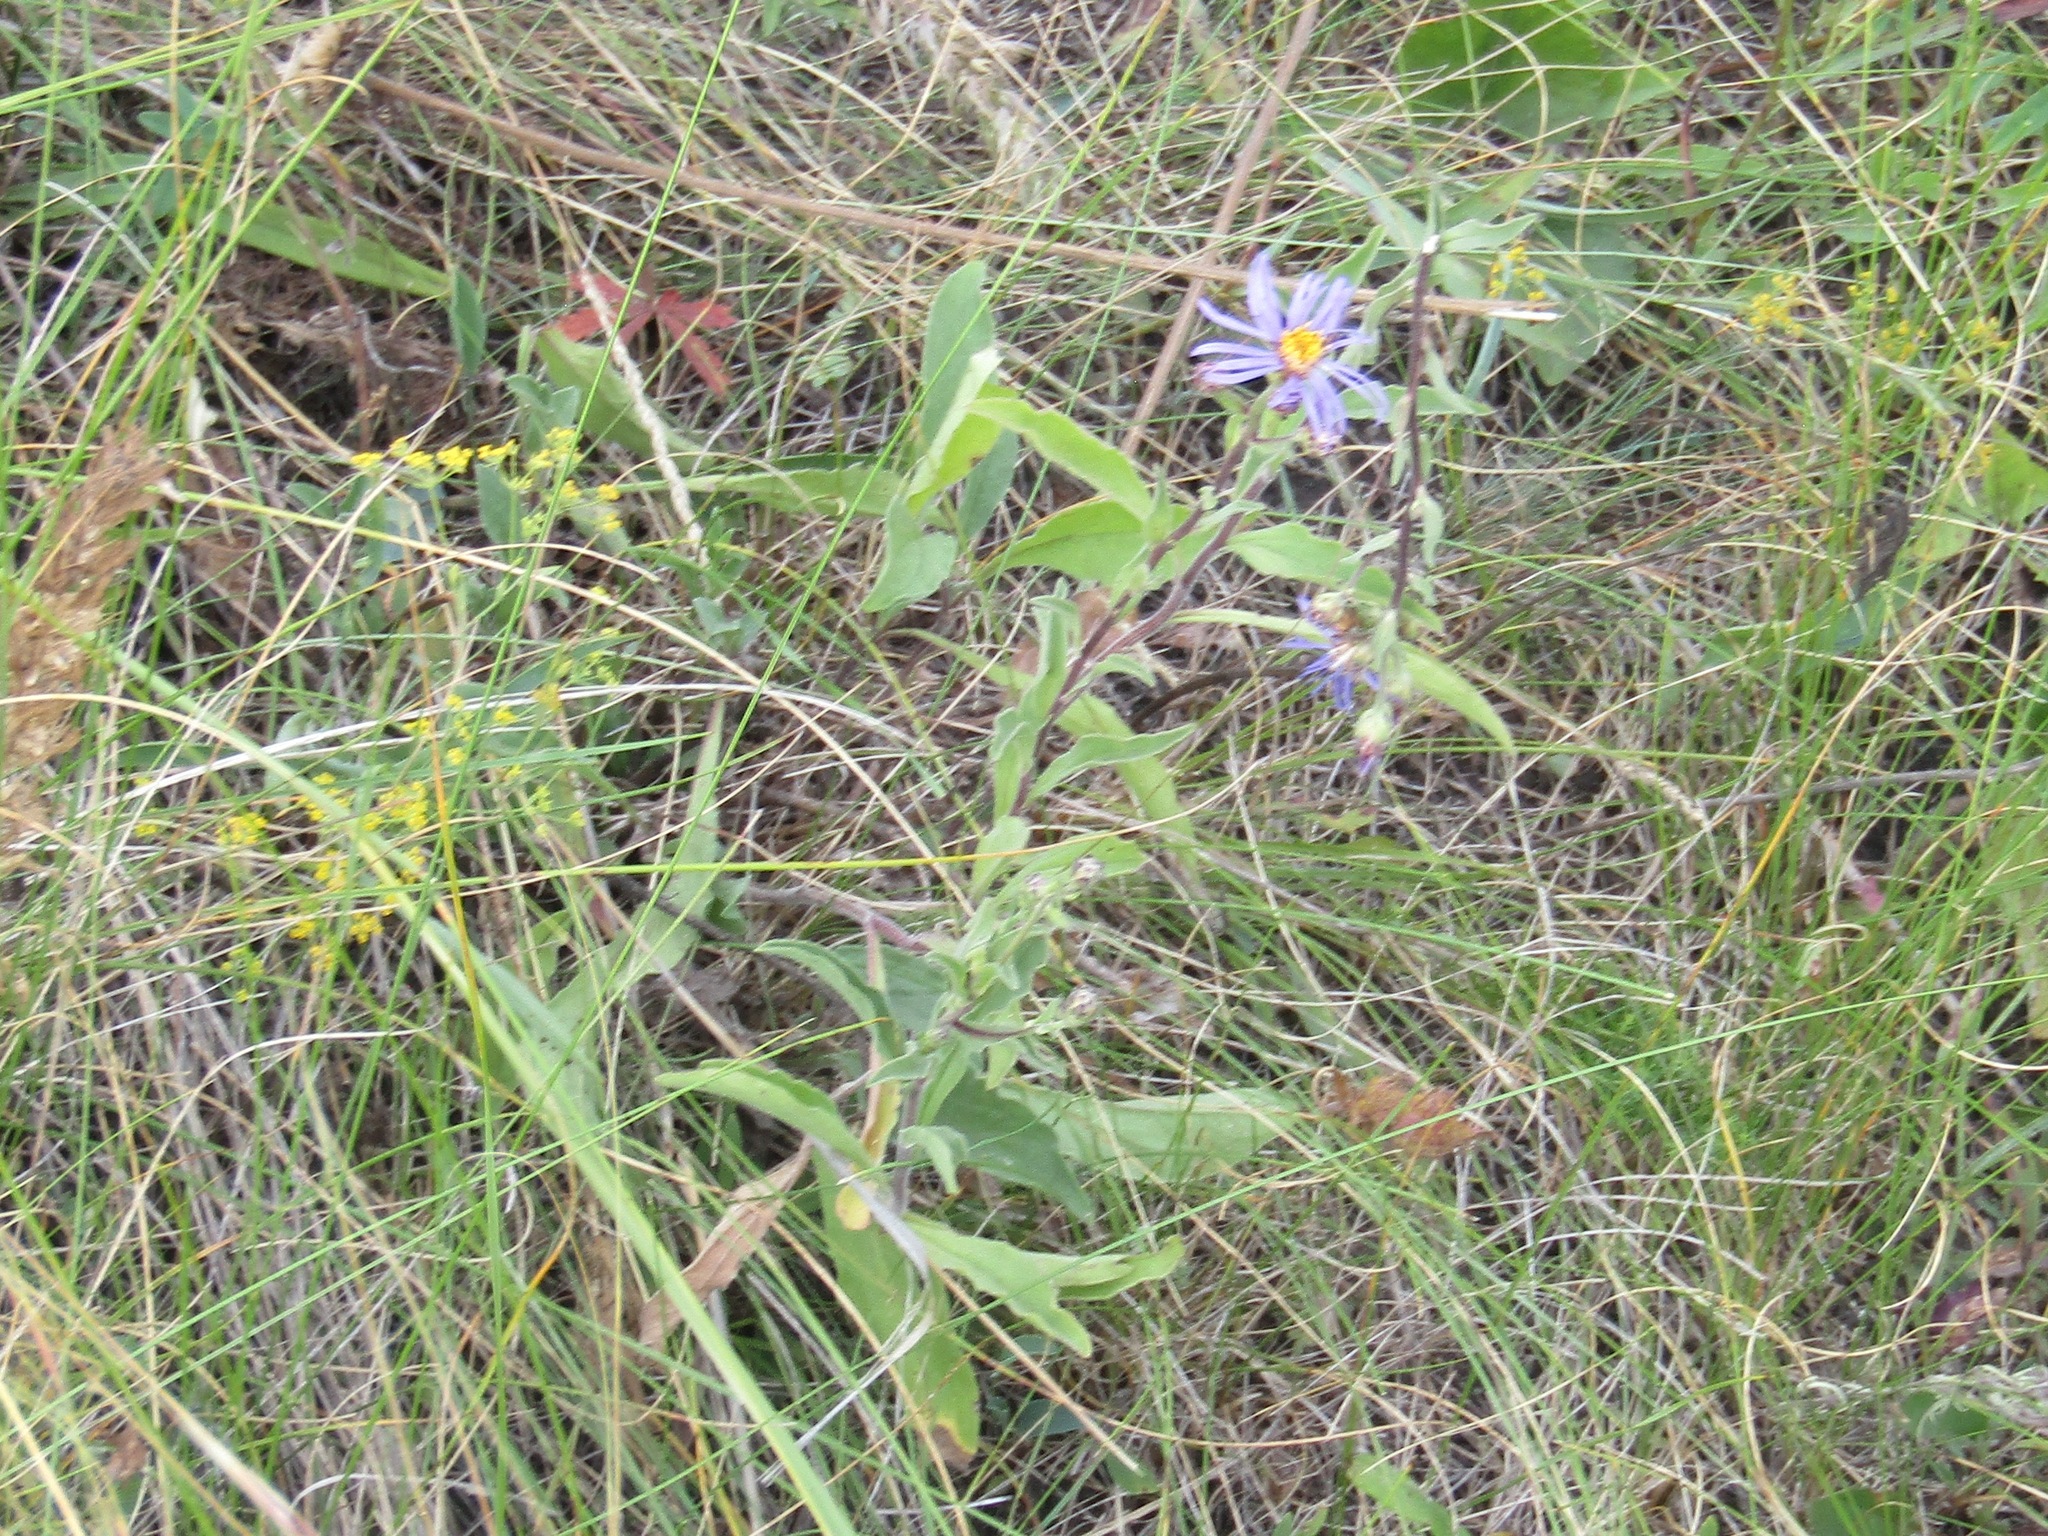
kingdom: Plantae
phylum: Tracheophyta
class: Magnoliopsida
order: Asterales
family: Asteraceae
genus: Aster
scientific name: Aster amellus
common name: European michaelmas daisy
